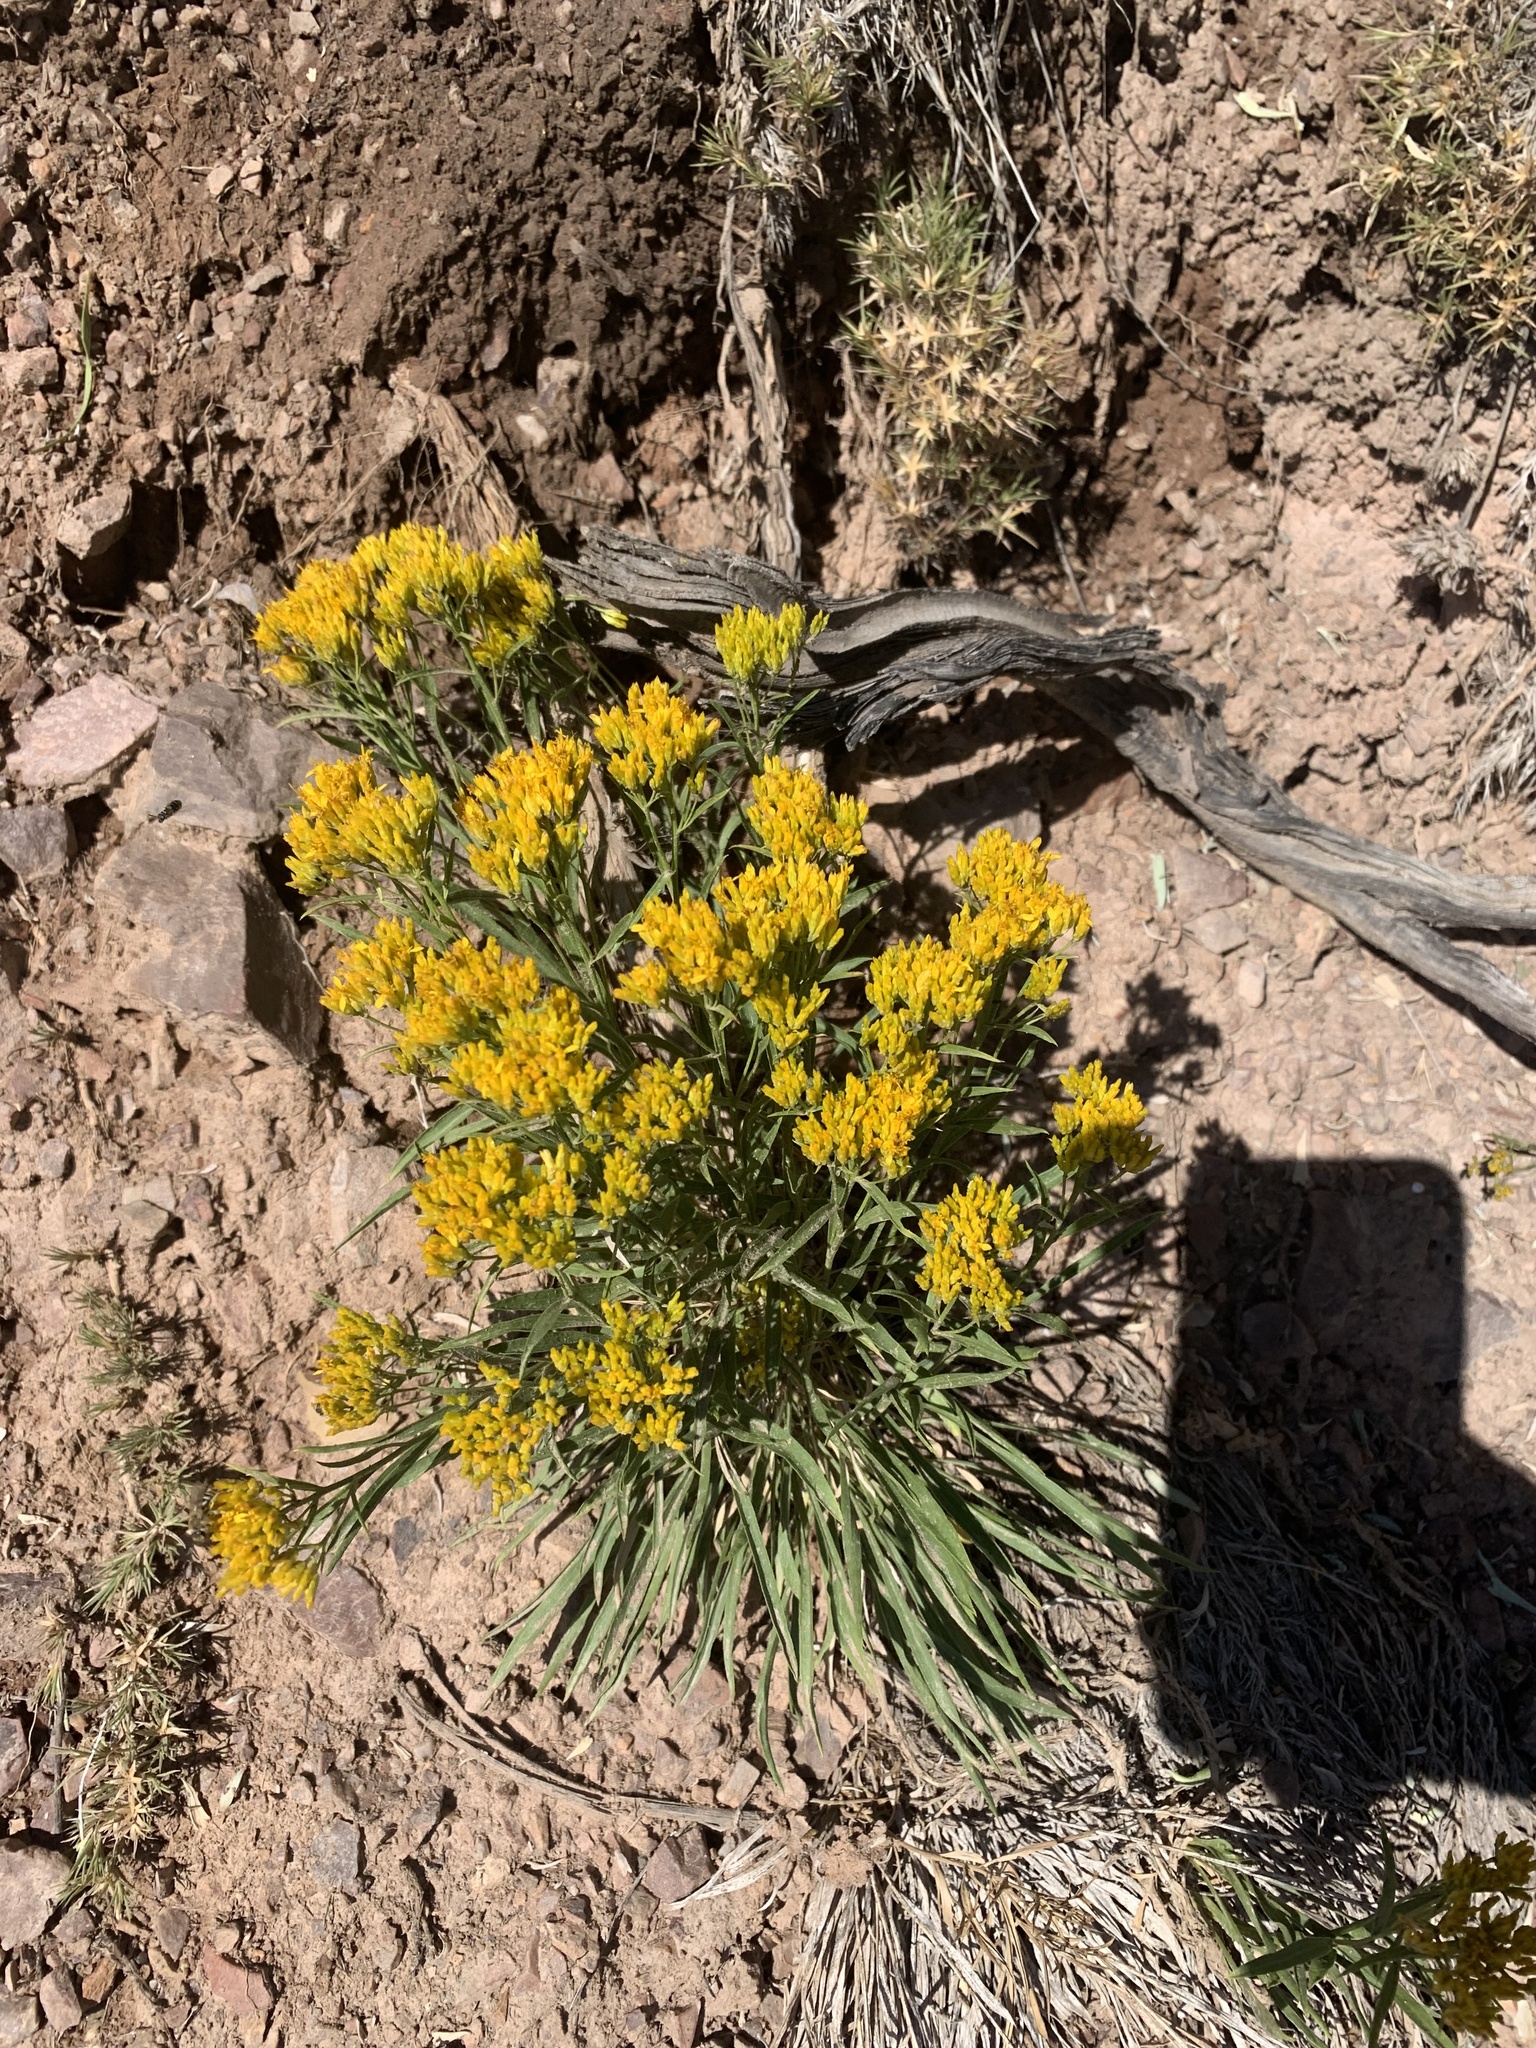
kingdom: Plantae
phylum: Tracheophyta
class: Magnoliopsida
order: Asterales
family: Asteraceae
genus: Petradoria
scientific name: Petradoria pumila
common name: Rock-goldenrod
